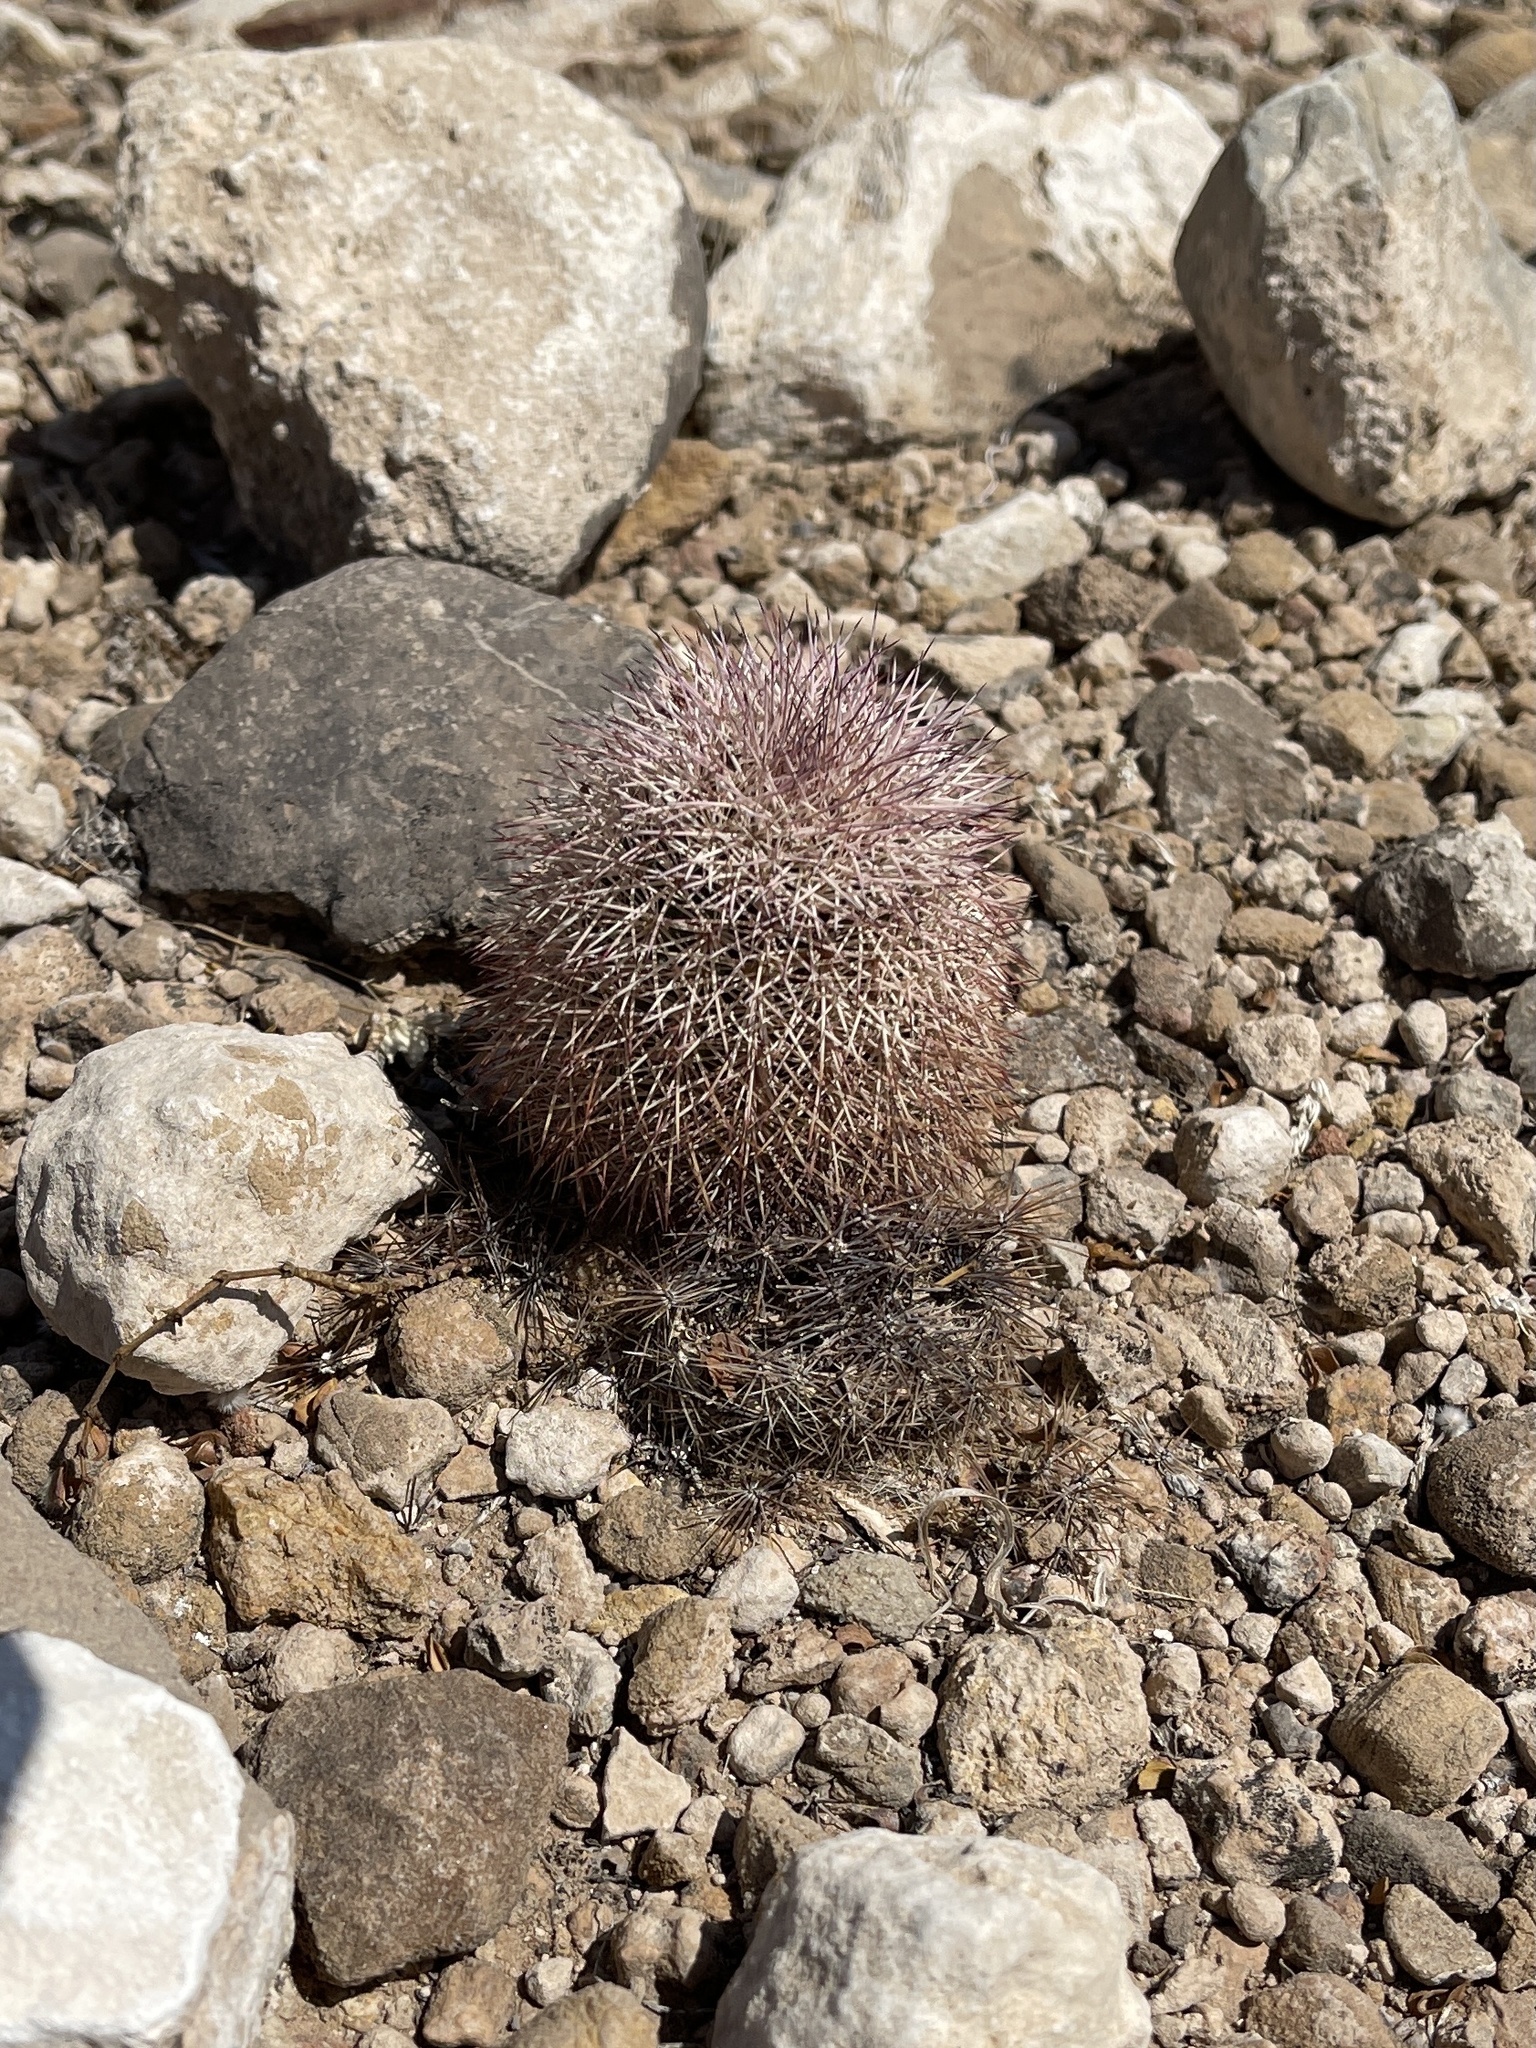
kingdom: Plantae
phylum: Tracheophyta
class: Magnoliopsida
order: Caryophyllales
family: Cactaceae
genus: Echinocereus
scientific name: Echinocereus dasyacanthus
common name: Spiny hedgehog cactus
